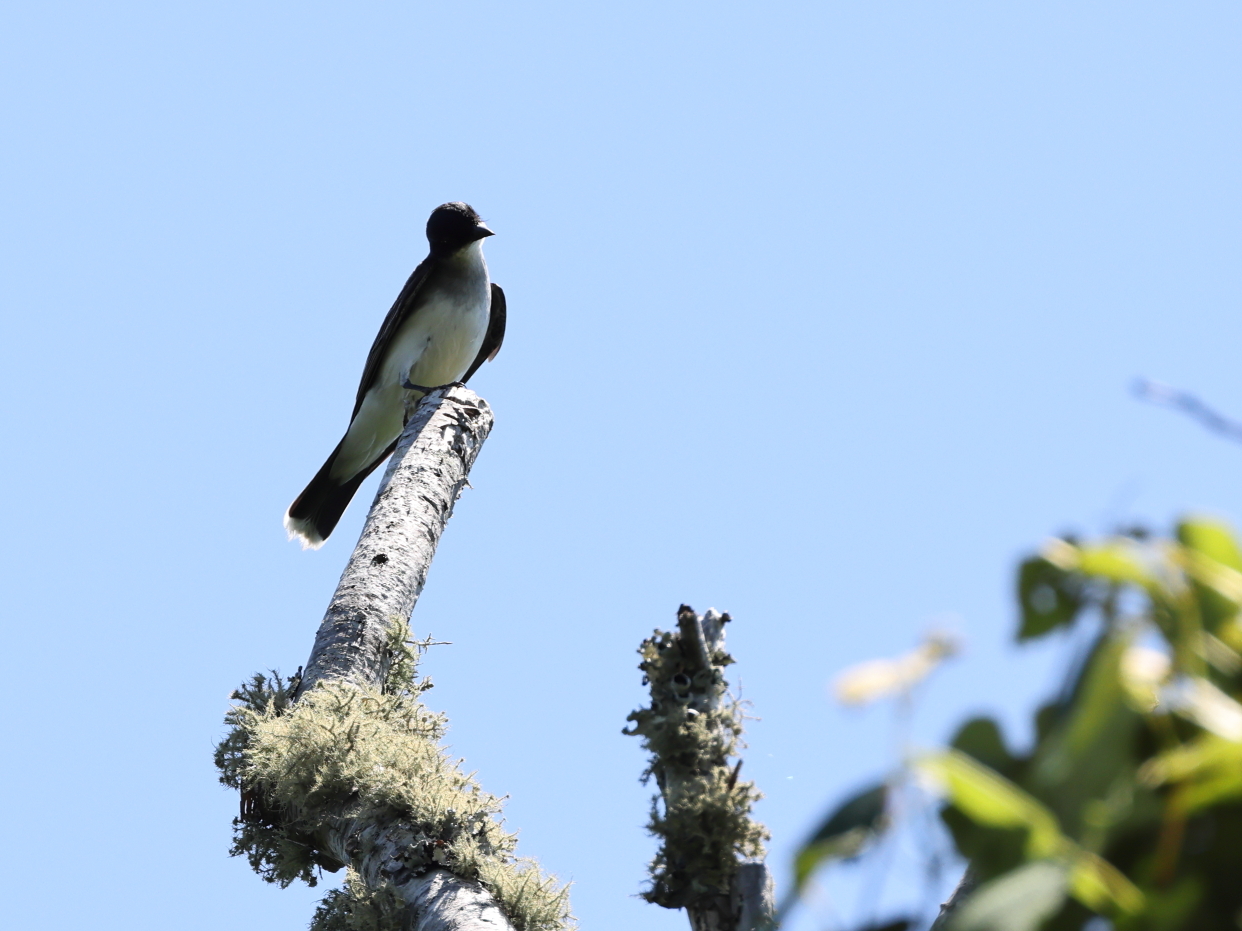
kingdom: Animalia
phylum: Chordata
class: Aves
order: Passeriformes
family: Tyrannidae
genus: Tyrannus
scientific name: Tyrannus tyrannus
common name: Eastern kingbird
